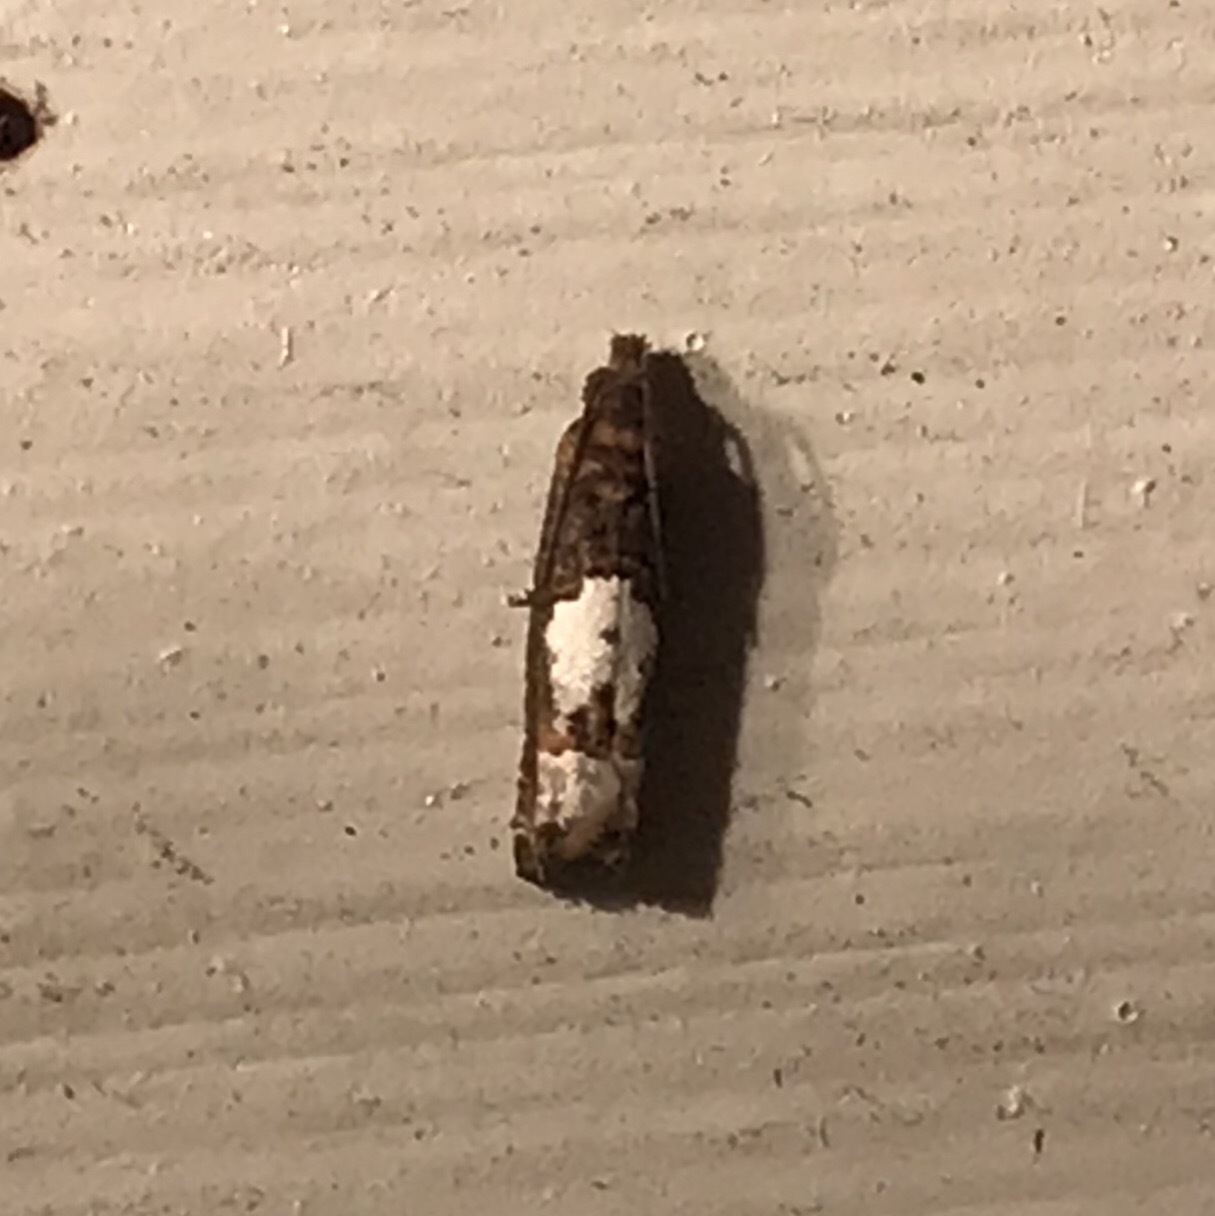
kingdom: Animalia
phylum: Arthropoda
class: Insecta
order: Lepidoptera
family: Tortricidae
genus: Eucosma
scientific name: Eucosma parmatana
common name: Aster eucosma moth
